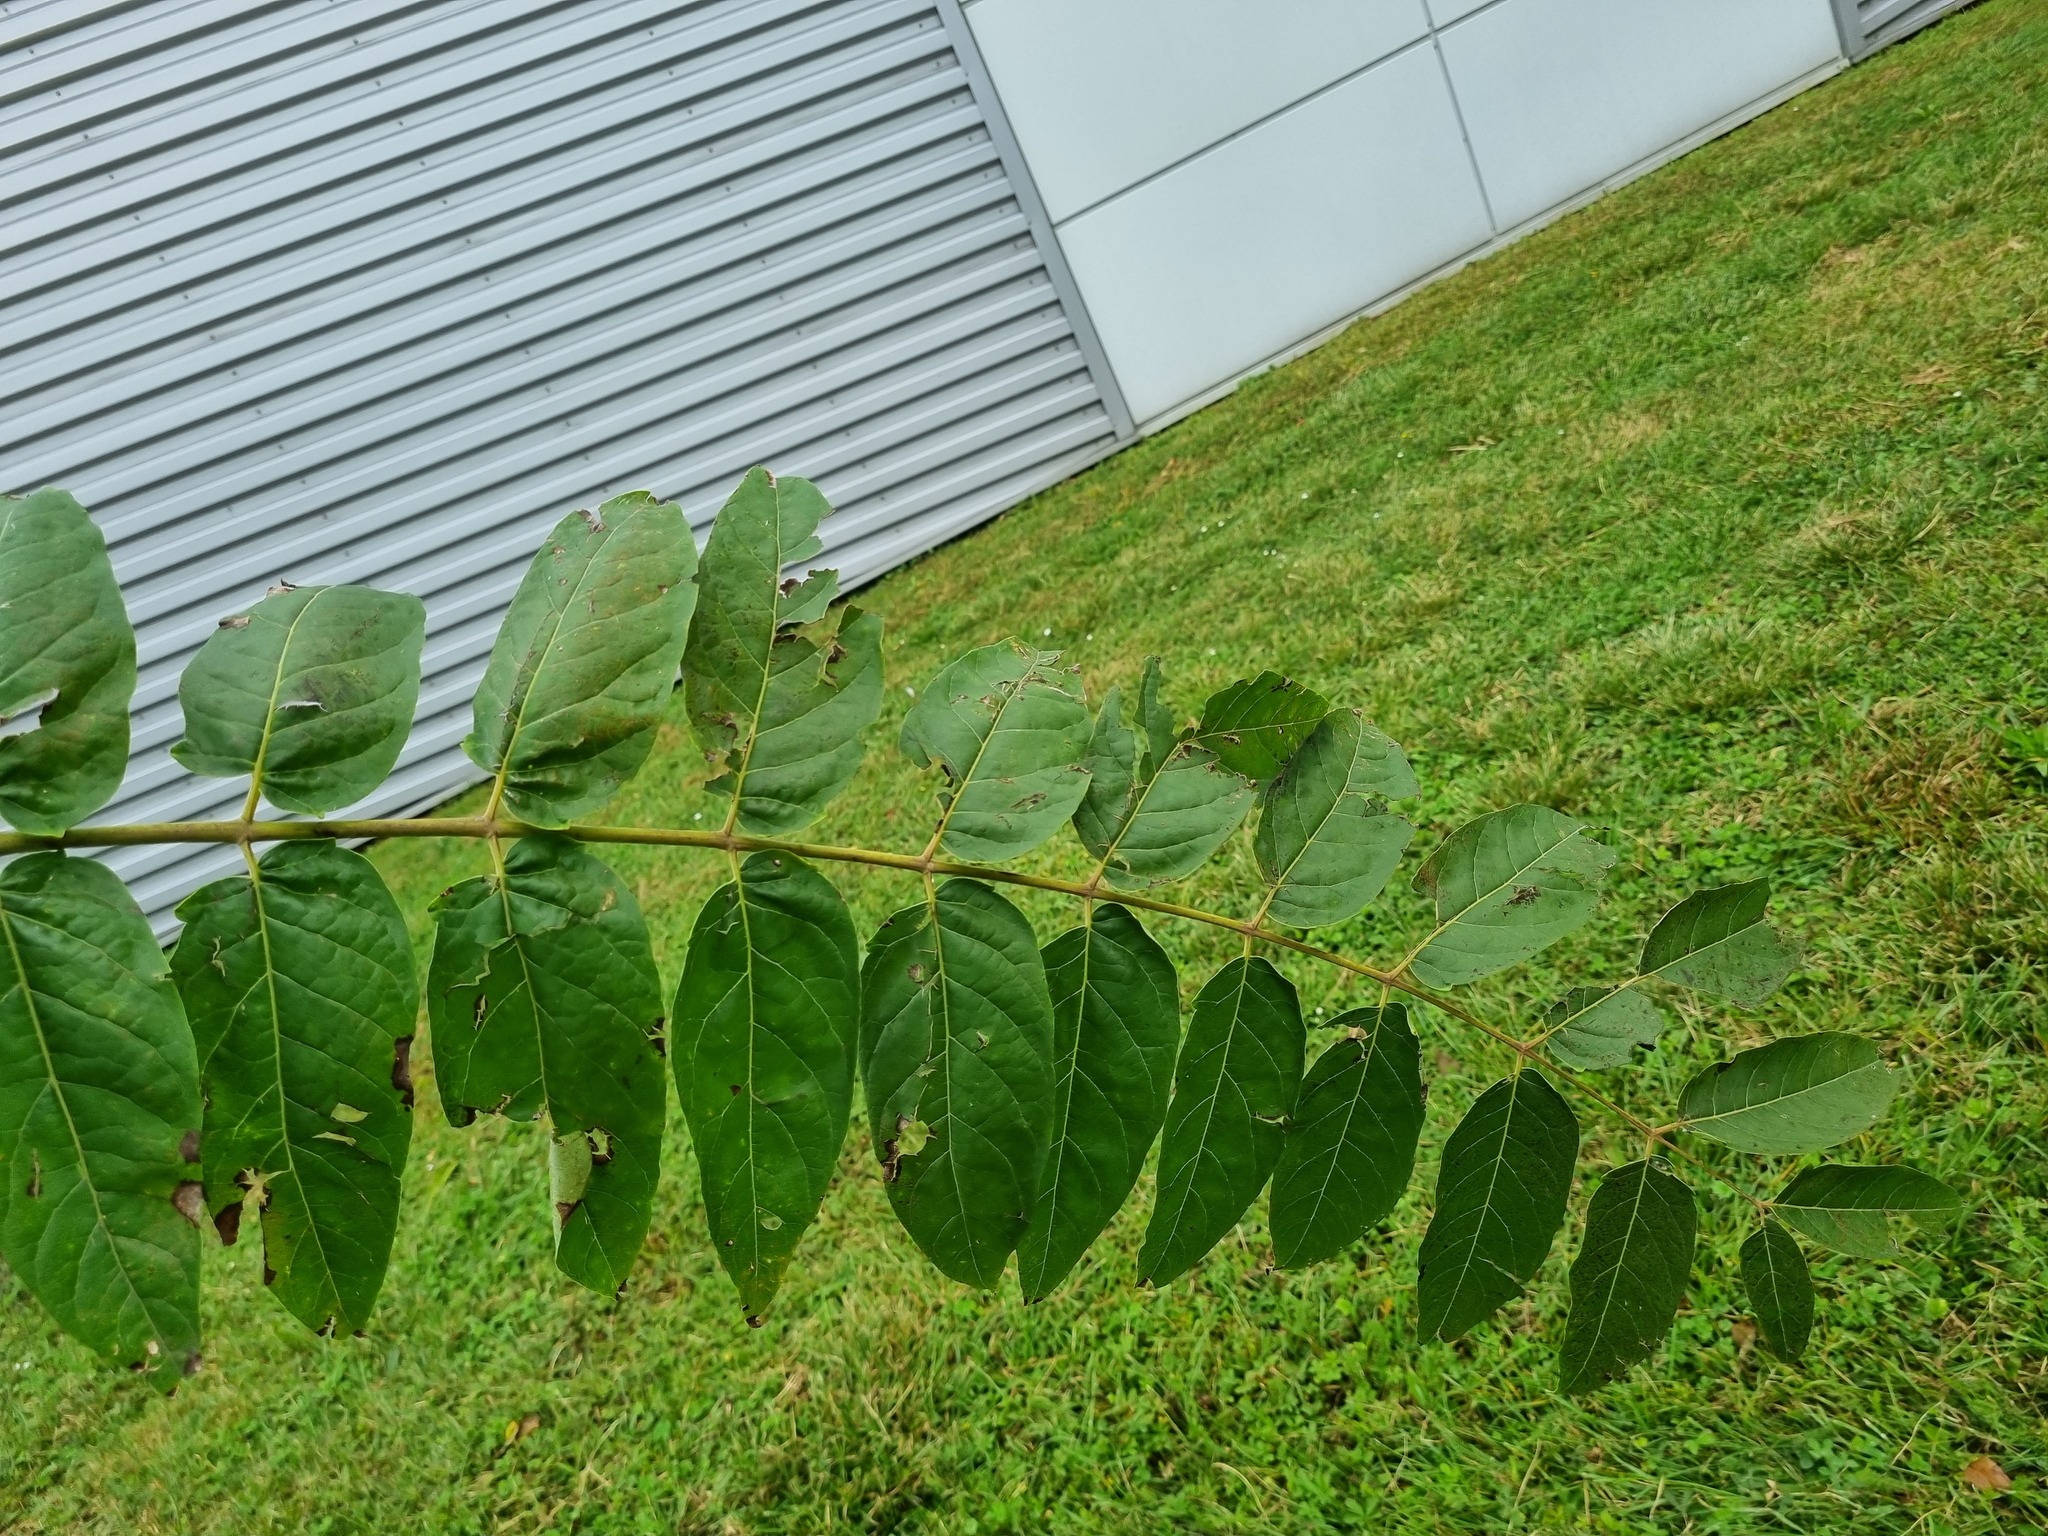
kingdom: Plantae
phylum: Tracheophyta
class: Magnoliopsida
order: Sapindales
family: Simaroubaceae
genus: Ailanthus
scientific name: Ailanthus altissima
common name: Tree-of-heaven
